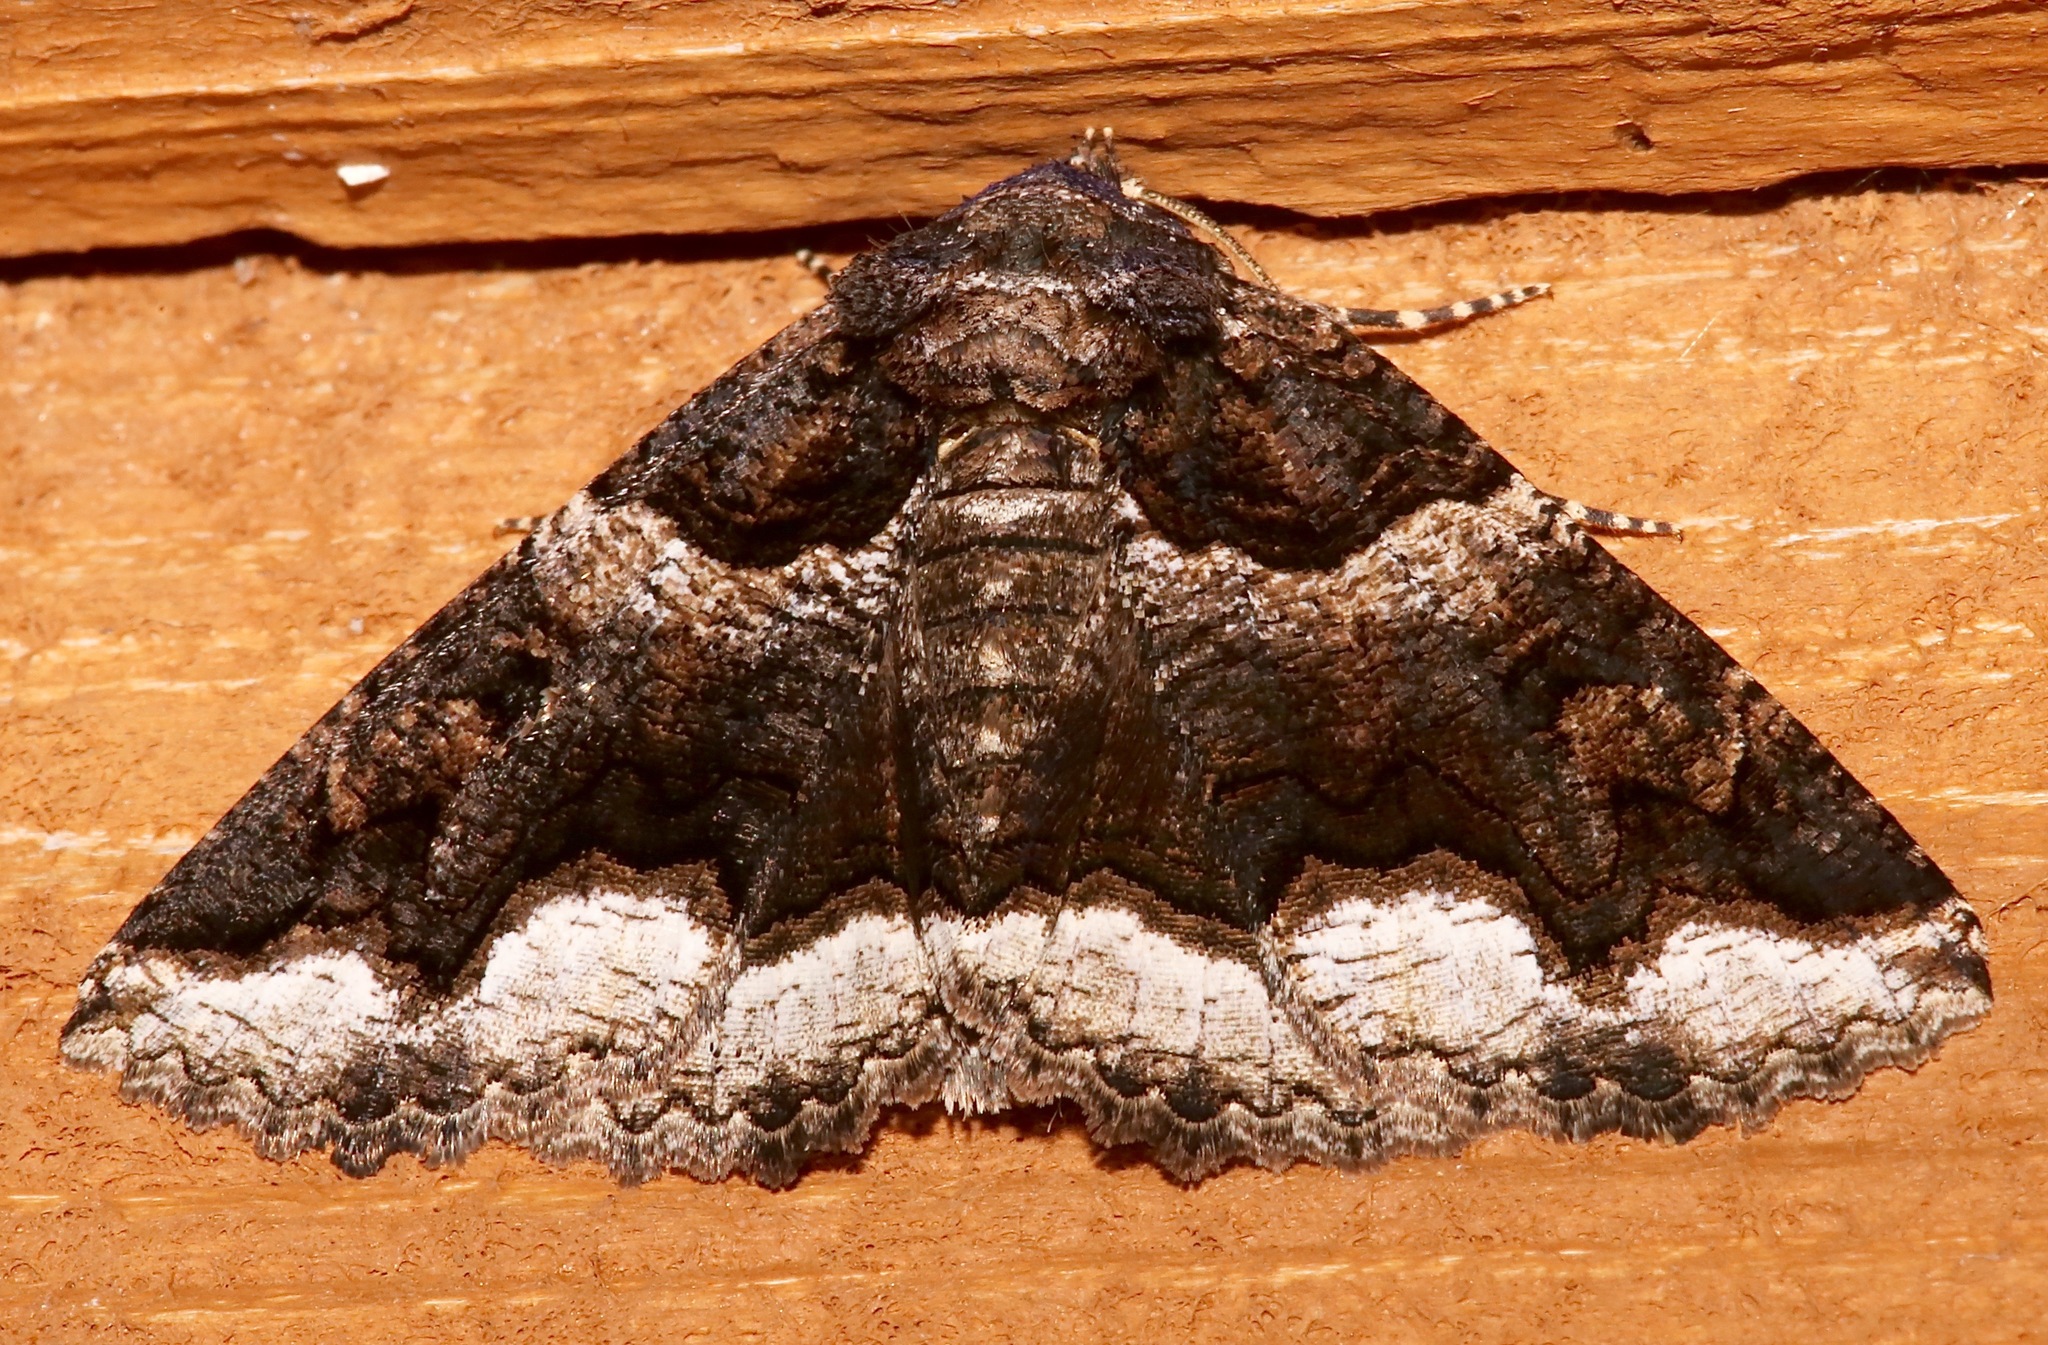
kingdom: Animalia
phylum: Arthropoda
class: Insecta
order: Lepidoptera
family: Erebidae
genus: Zale
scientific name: Zale calycanthata
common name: Double-banded zale
